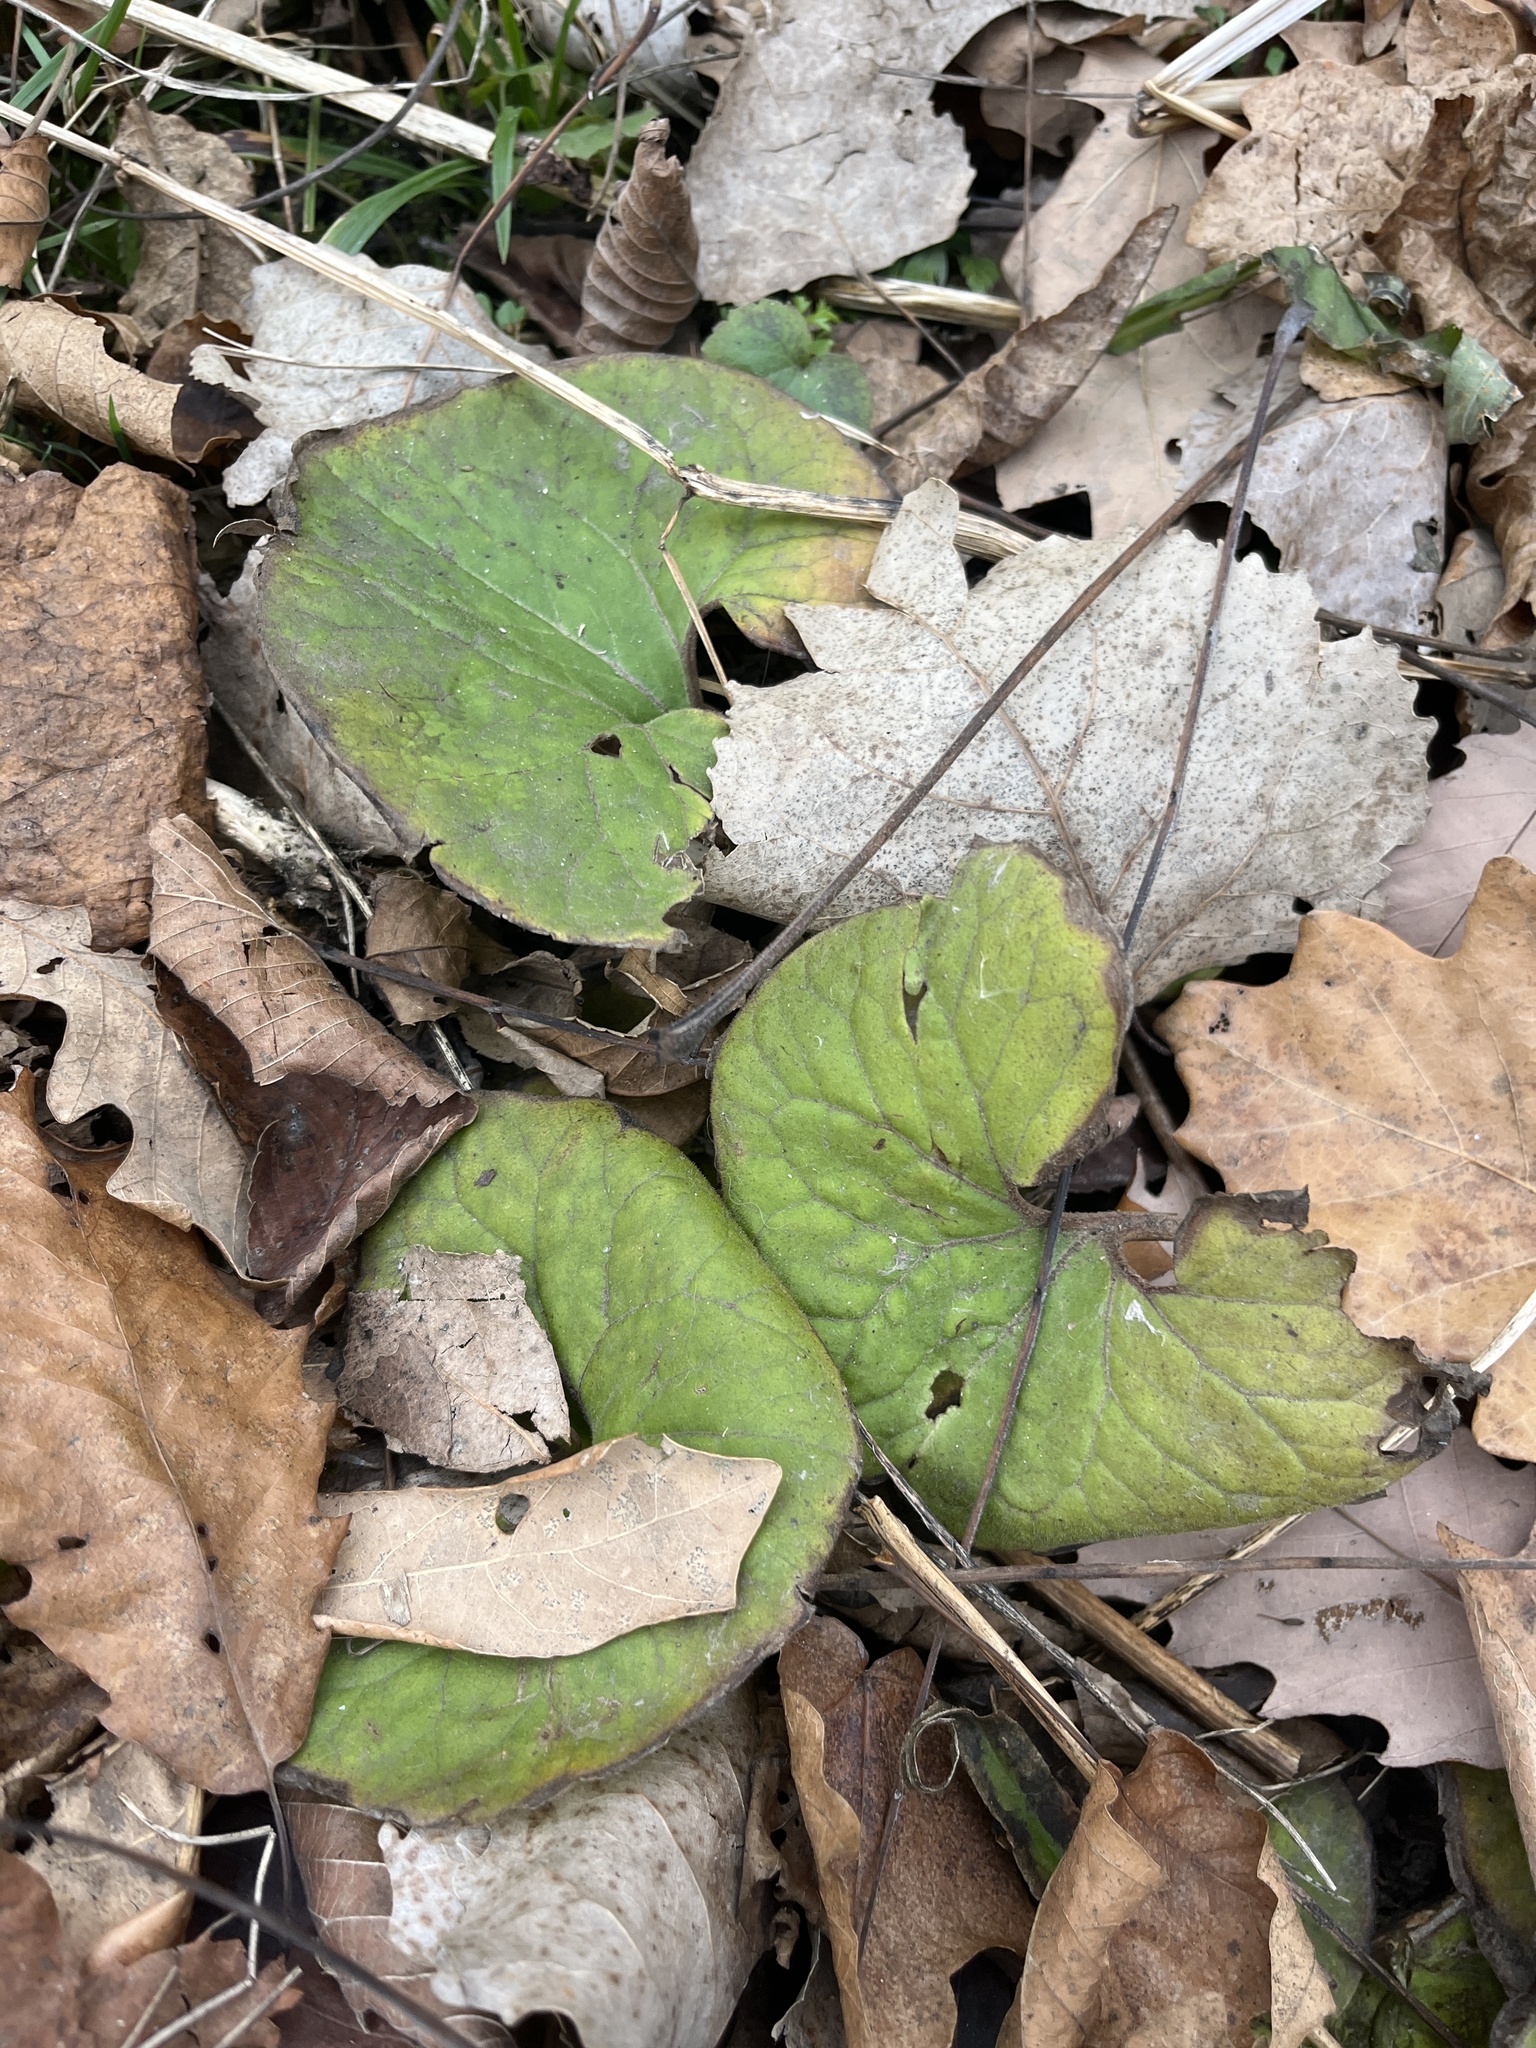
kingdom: Plantae
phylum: Tracheophyta
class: Magnoliopsida
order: Piperales
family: Aristolochiaceae
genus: Asarum
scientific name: Asarum canadense
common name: Wild ginger
